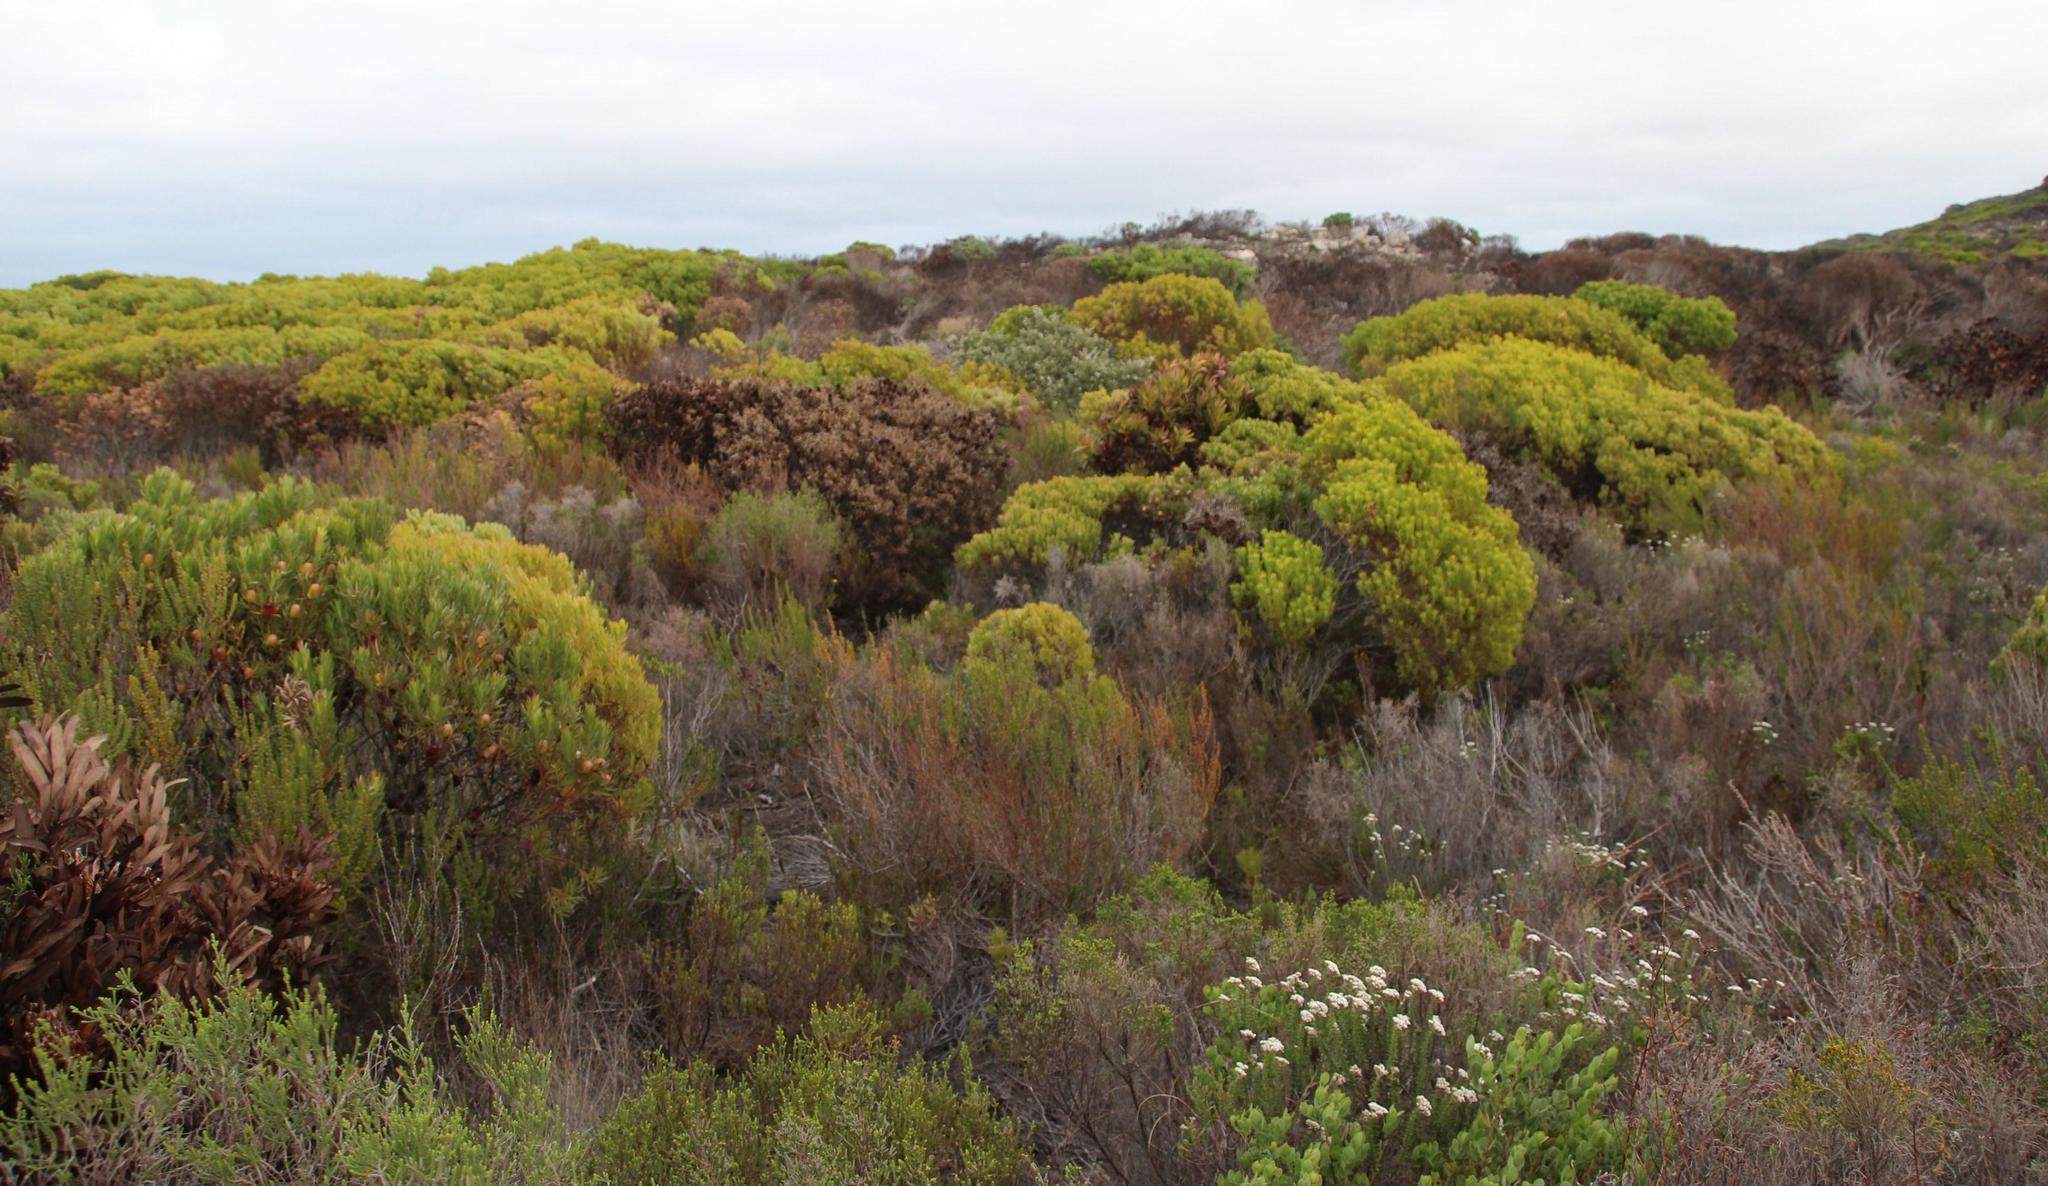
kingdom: Plantae
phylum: Tracheophyta
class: Magnoliopsida
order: Proteales
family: Proteaceae
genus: Leucadendron
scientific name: Leucadendron coniferum
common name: Dune conebush
